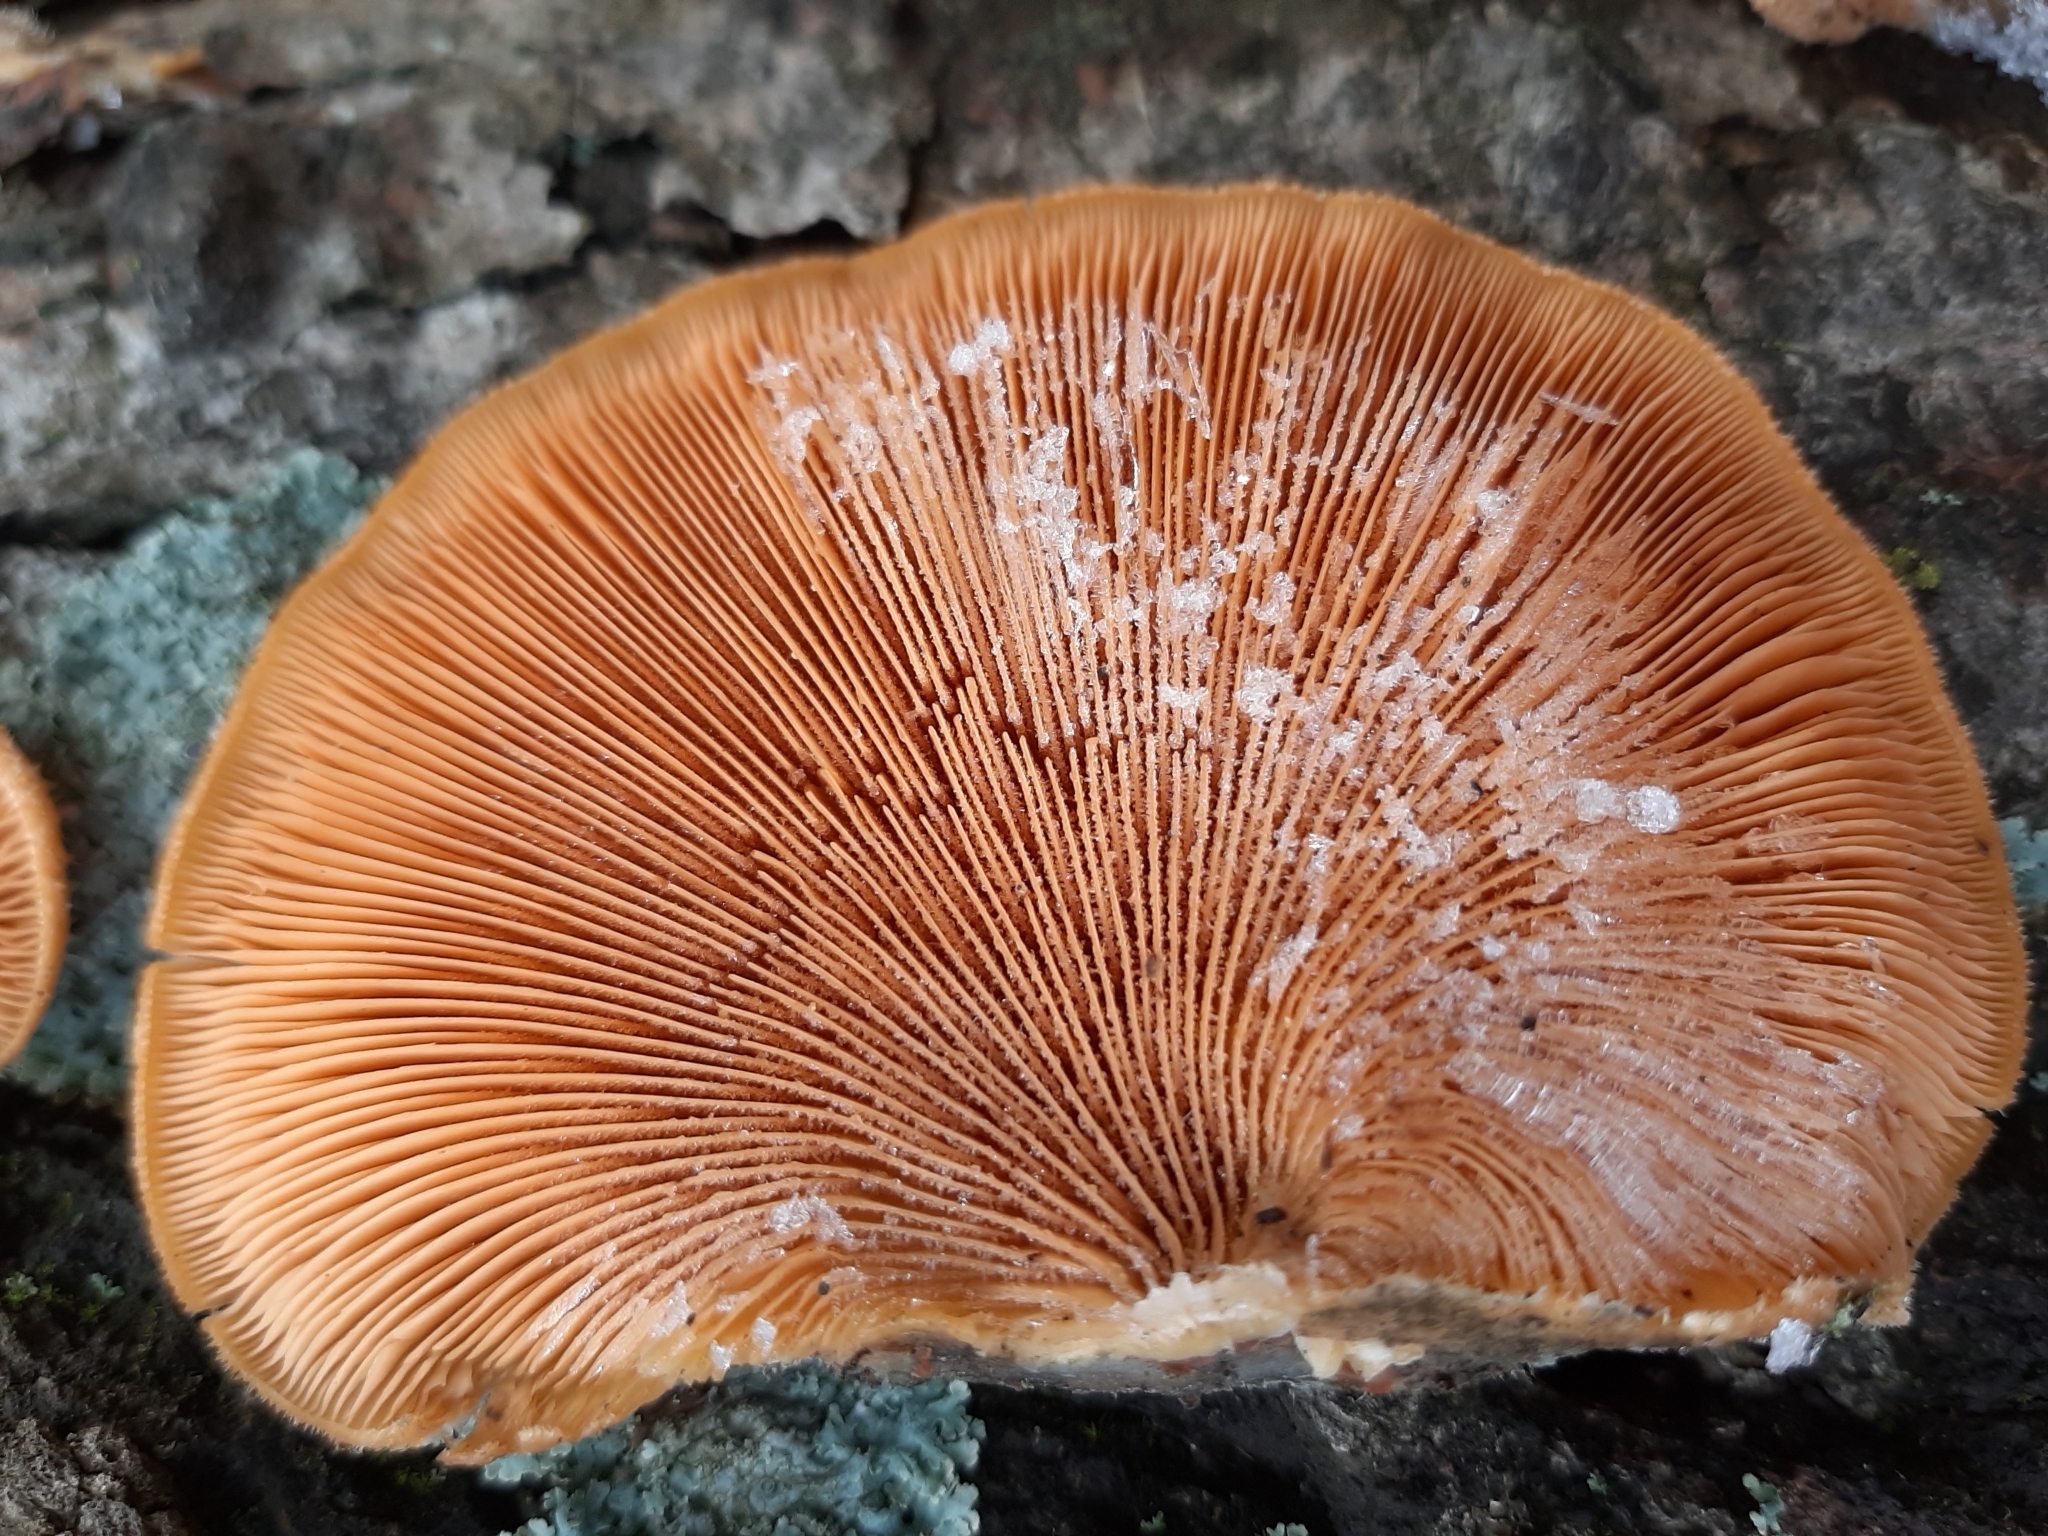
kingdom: Fungi
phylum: Basidiomycota
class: Agaricomycetes
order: Agaricales
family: Phyllotopsidaceae
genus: Phyllotopsis
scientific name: Phyllotopsis nidulans
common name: Orange mock oyster
